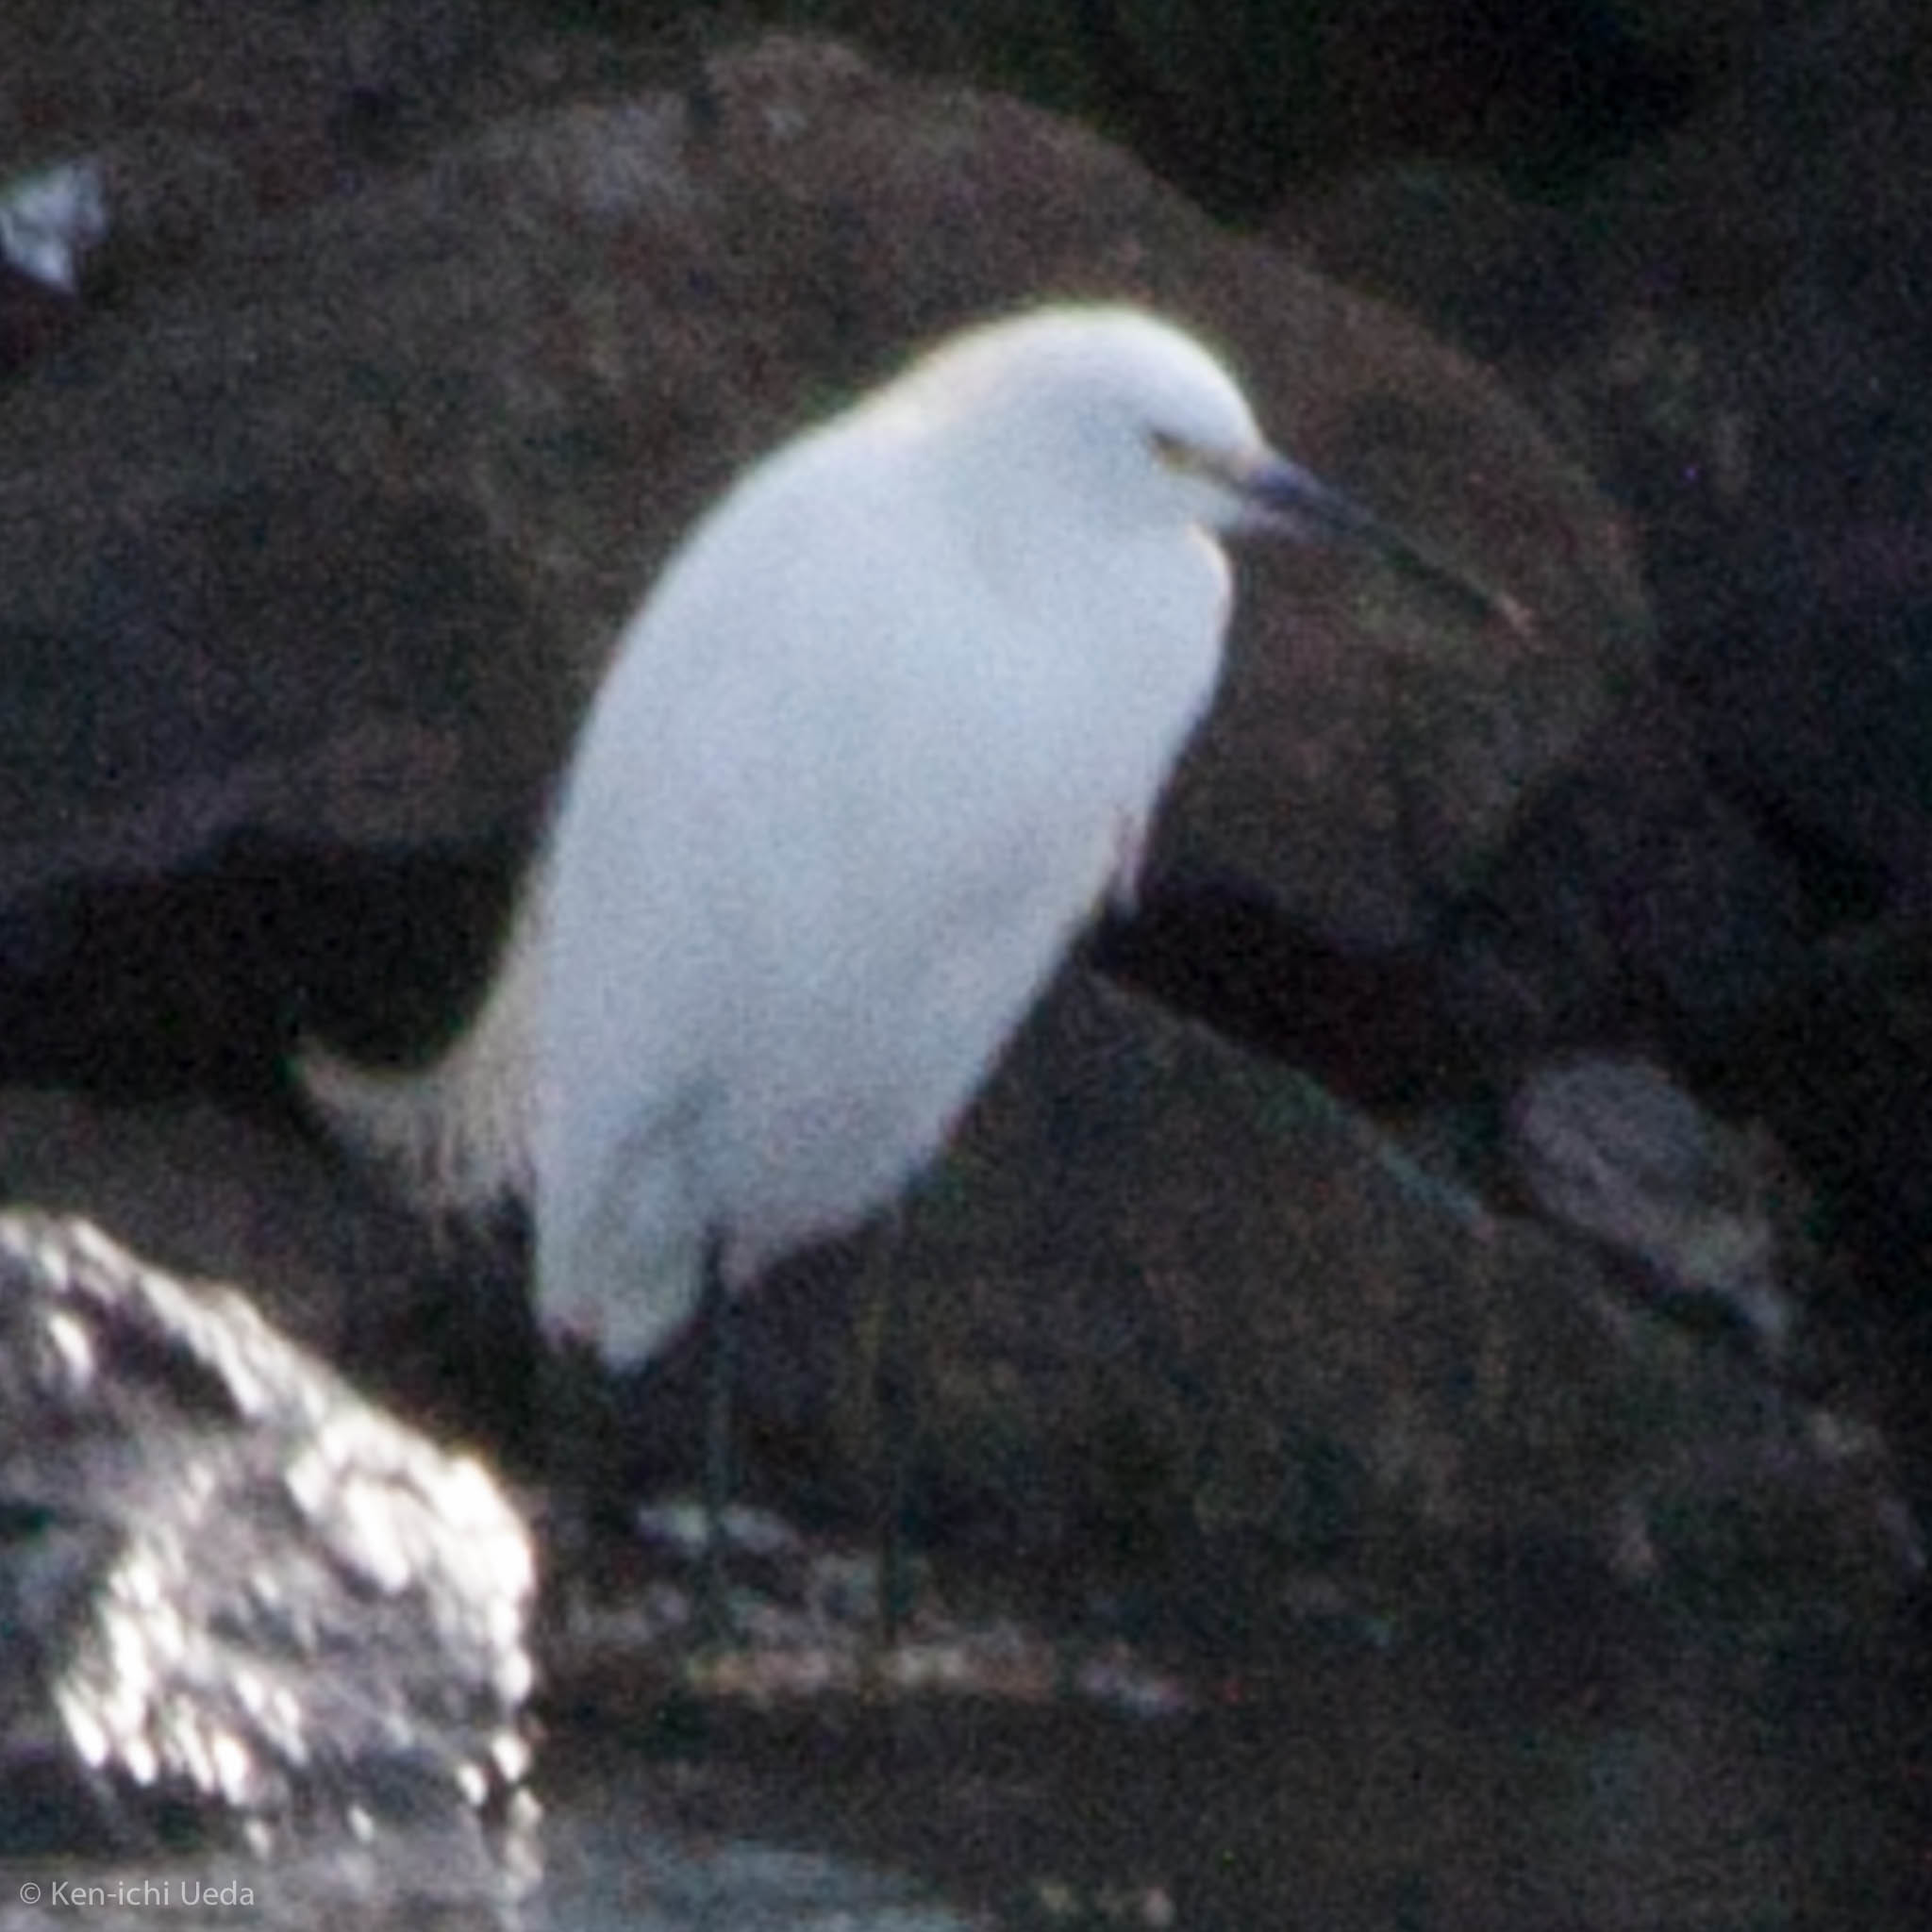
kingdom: Animalia
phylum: Chordata
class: Aves
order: Pelecaniformes
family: Ardeidae
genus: Egretta
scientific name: Egretta thula
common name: Snowy egret
